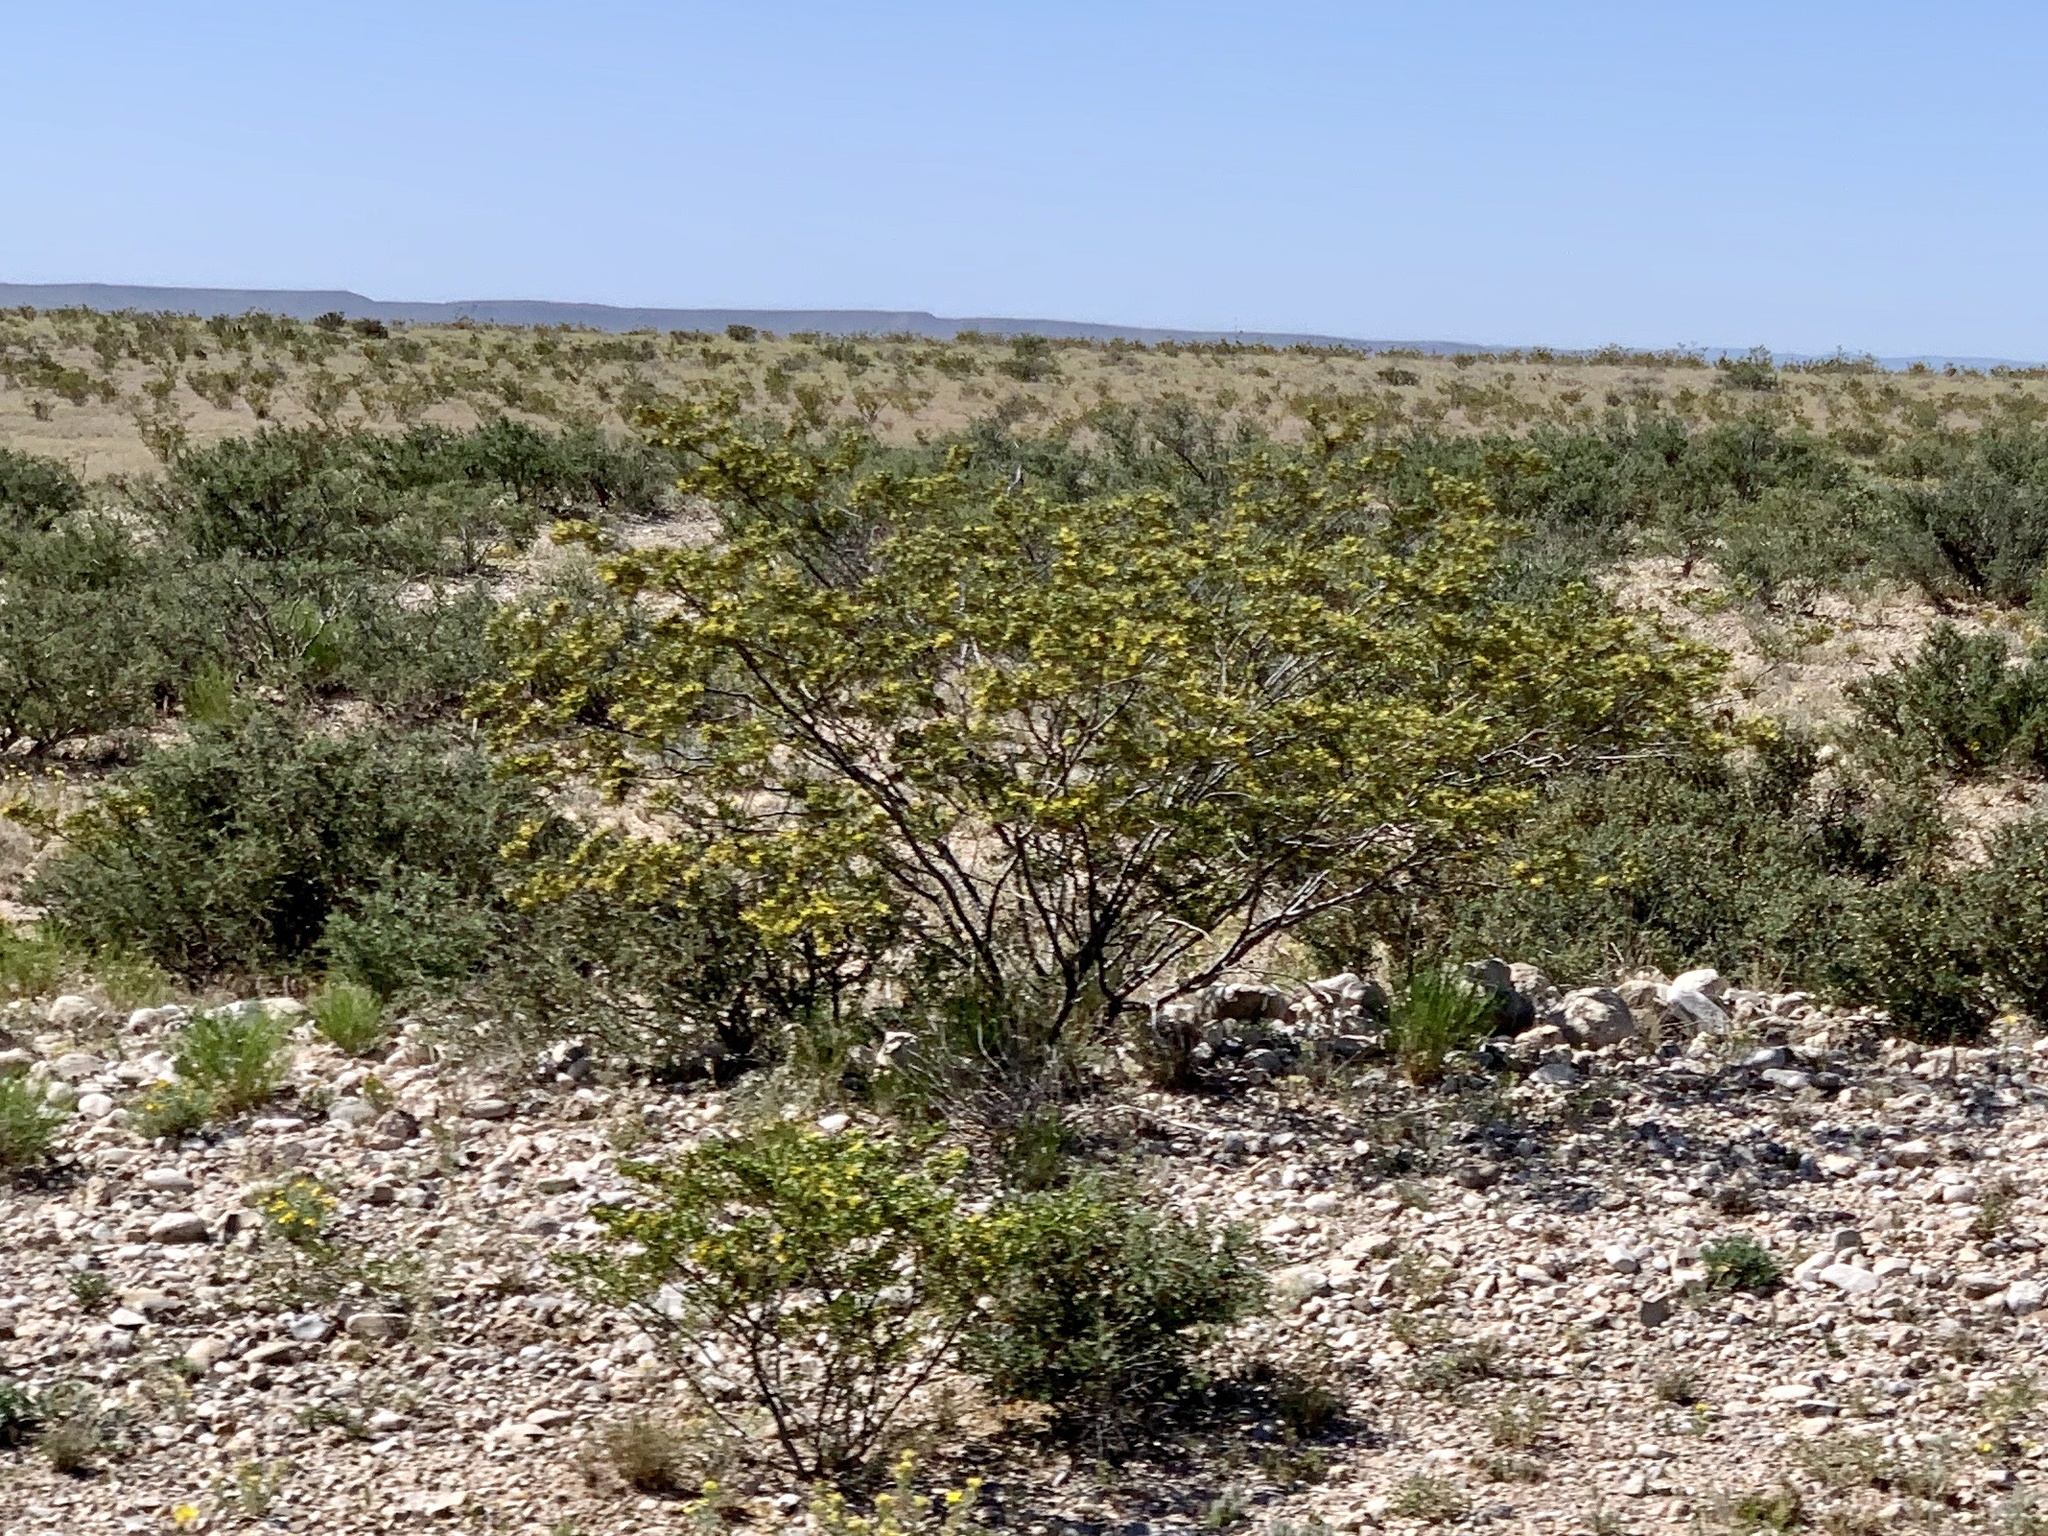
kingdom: Plantae
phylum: Tracheophyta
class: Magnoliopsida
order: Zygophyllales
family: Zygophyllaceae
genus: Larrea
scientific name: Larrea tridentata
